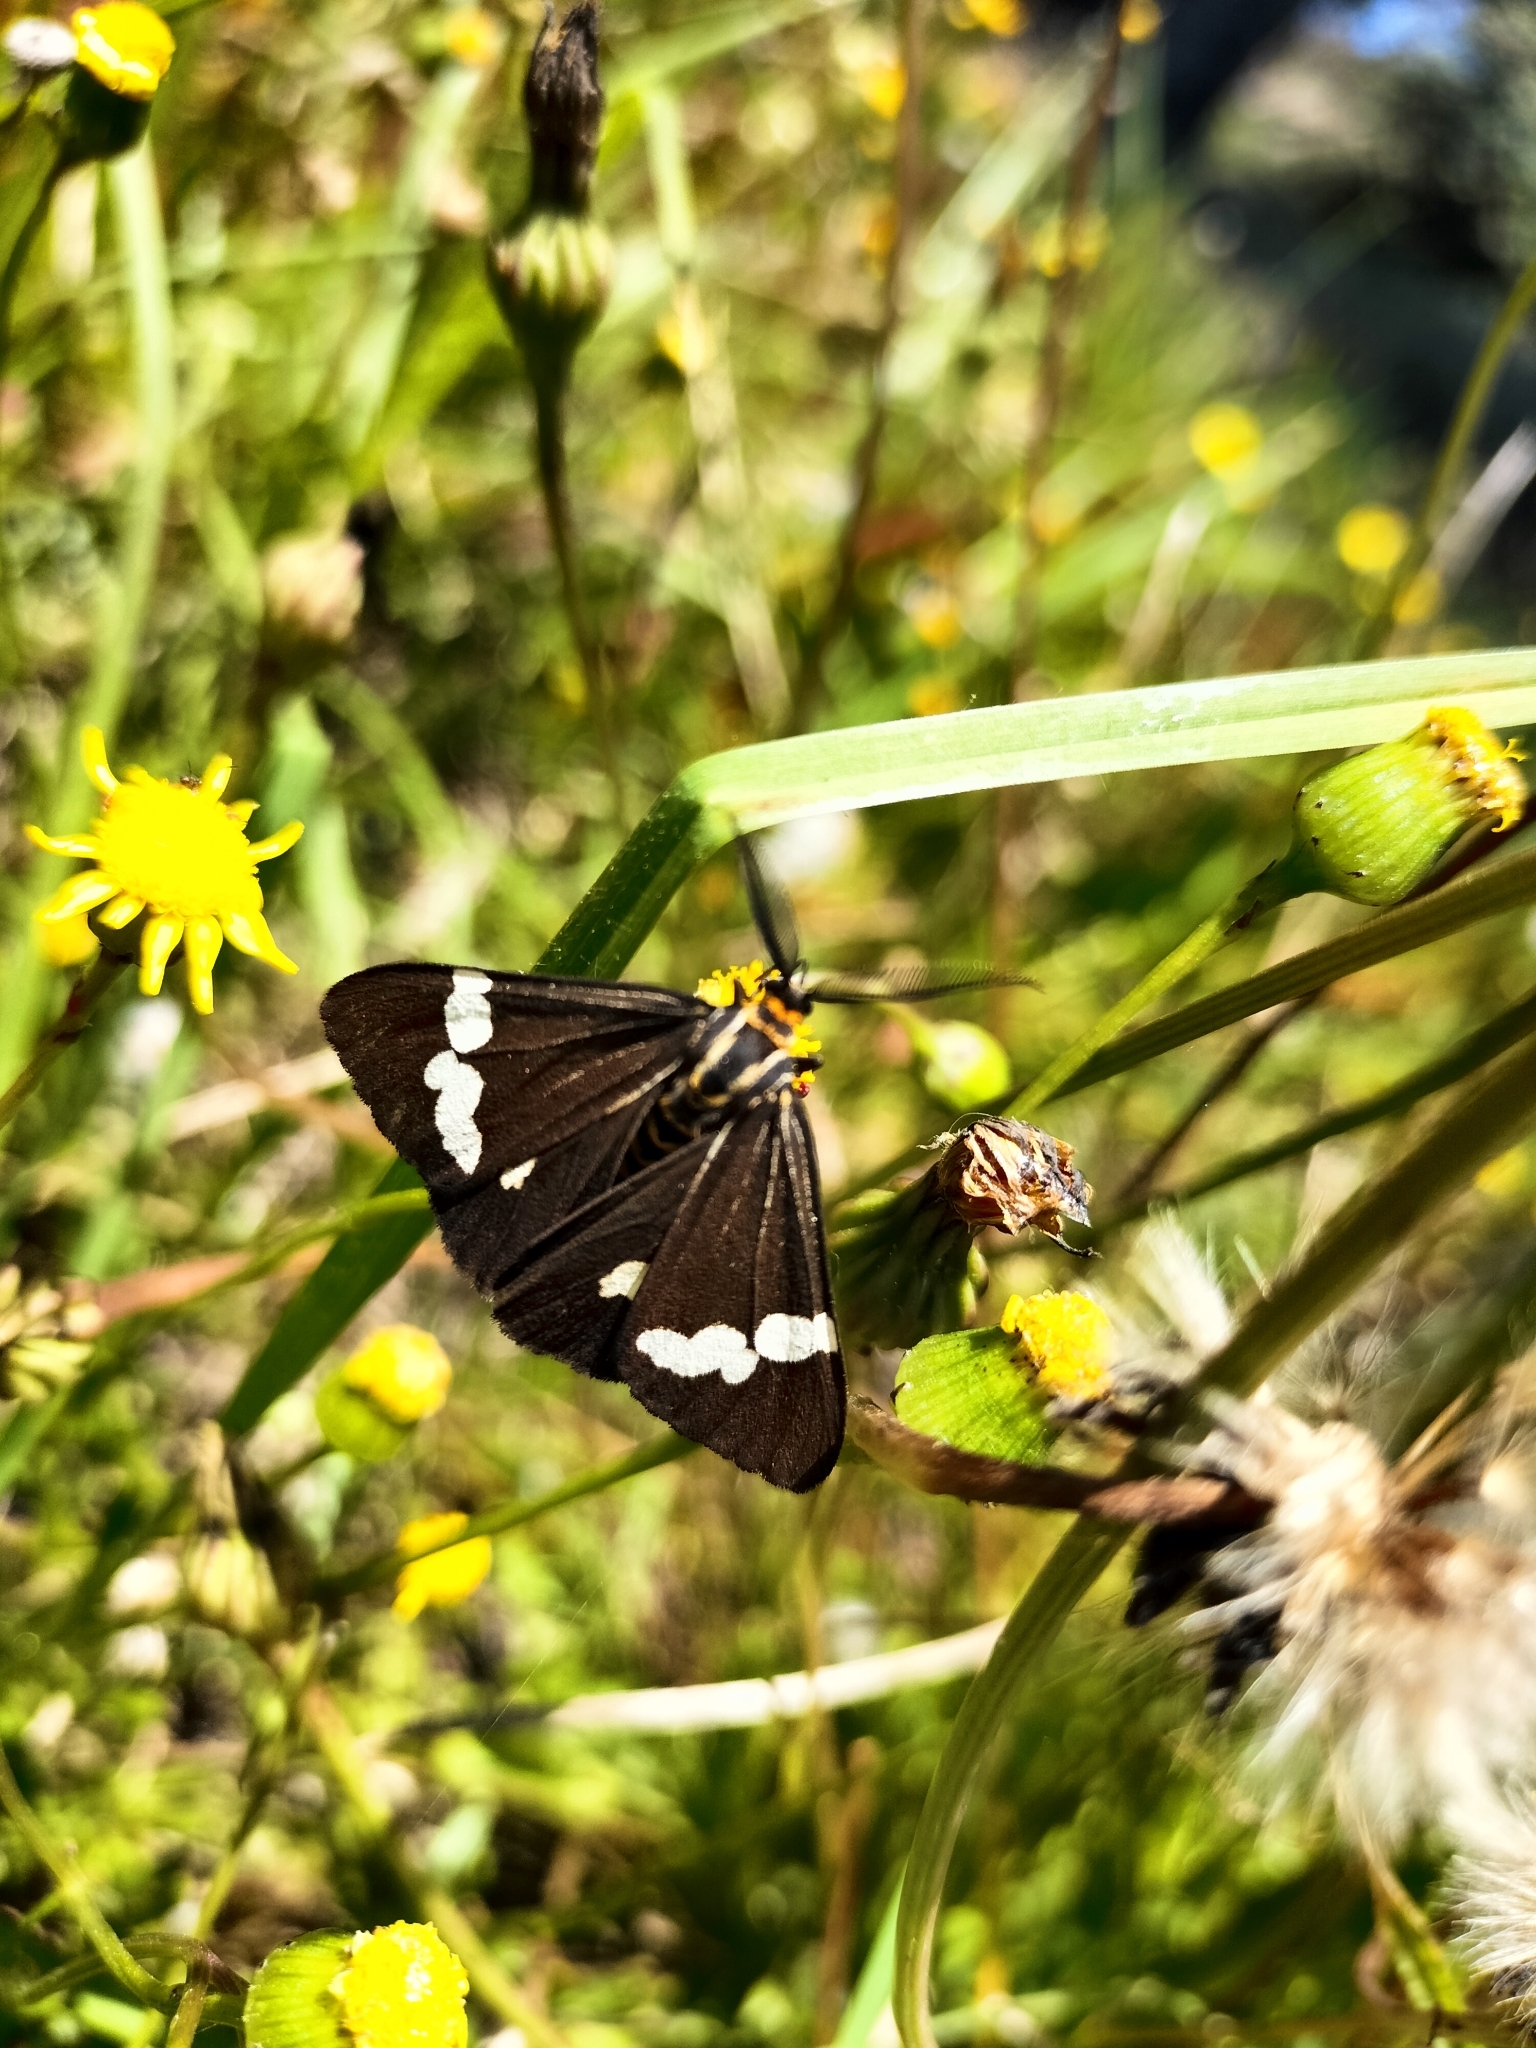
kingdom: Animalia
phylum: Arthropoda
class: Insecta
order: Lepidoptera
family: Erebidae
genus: Nyctemera
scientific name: Nyctemera
